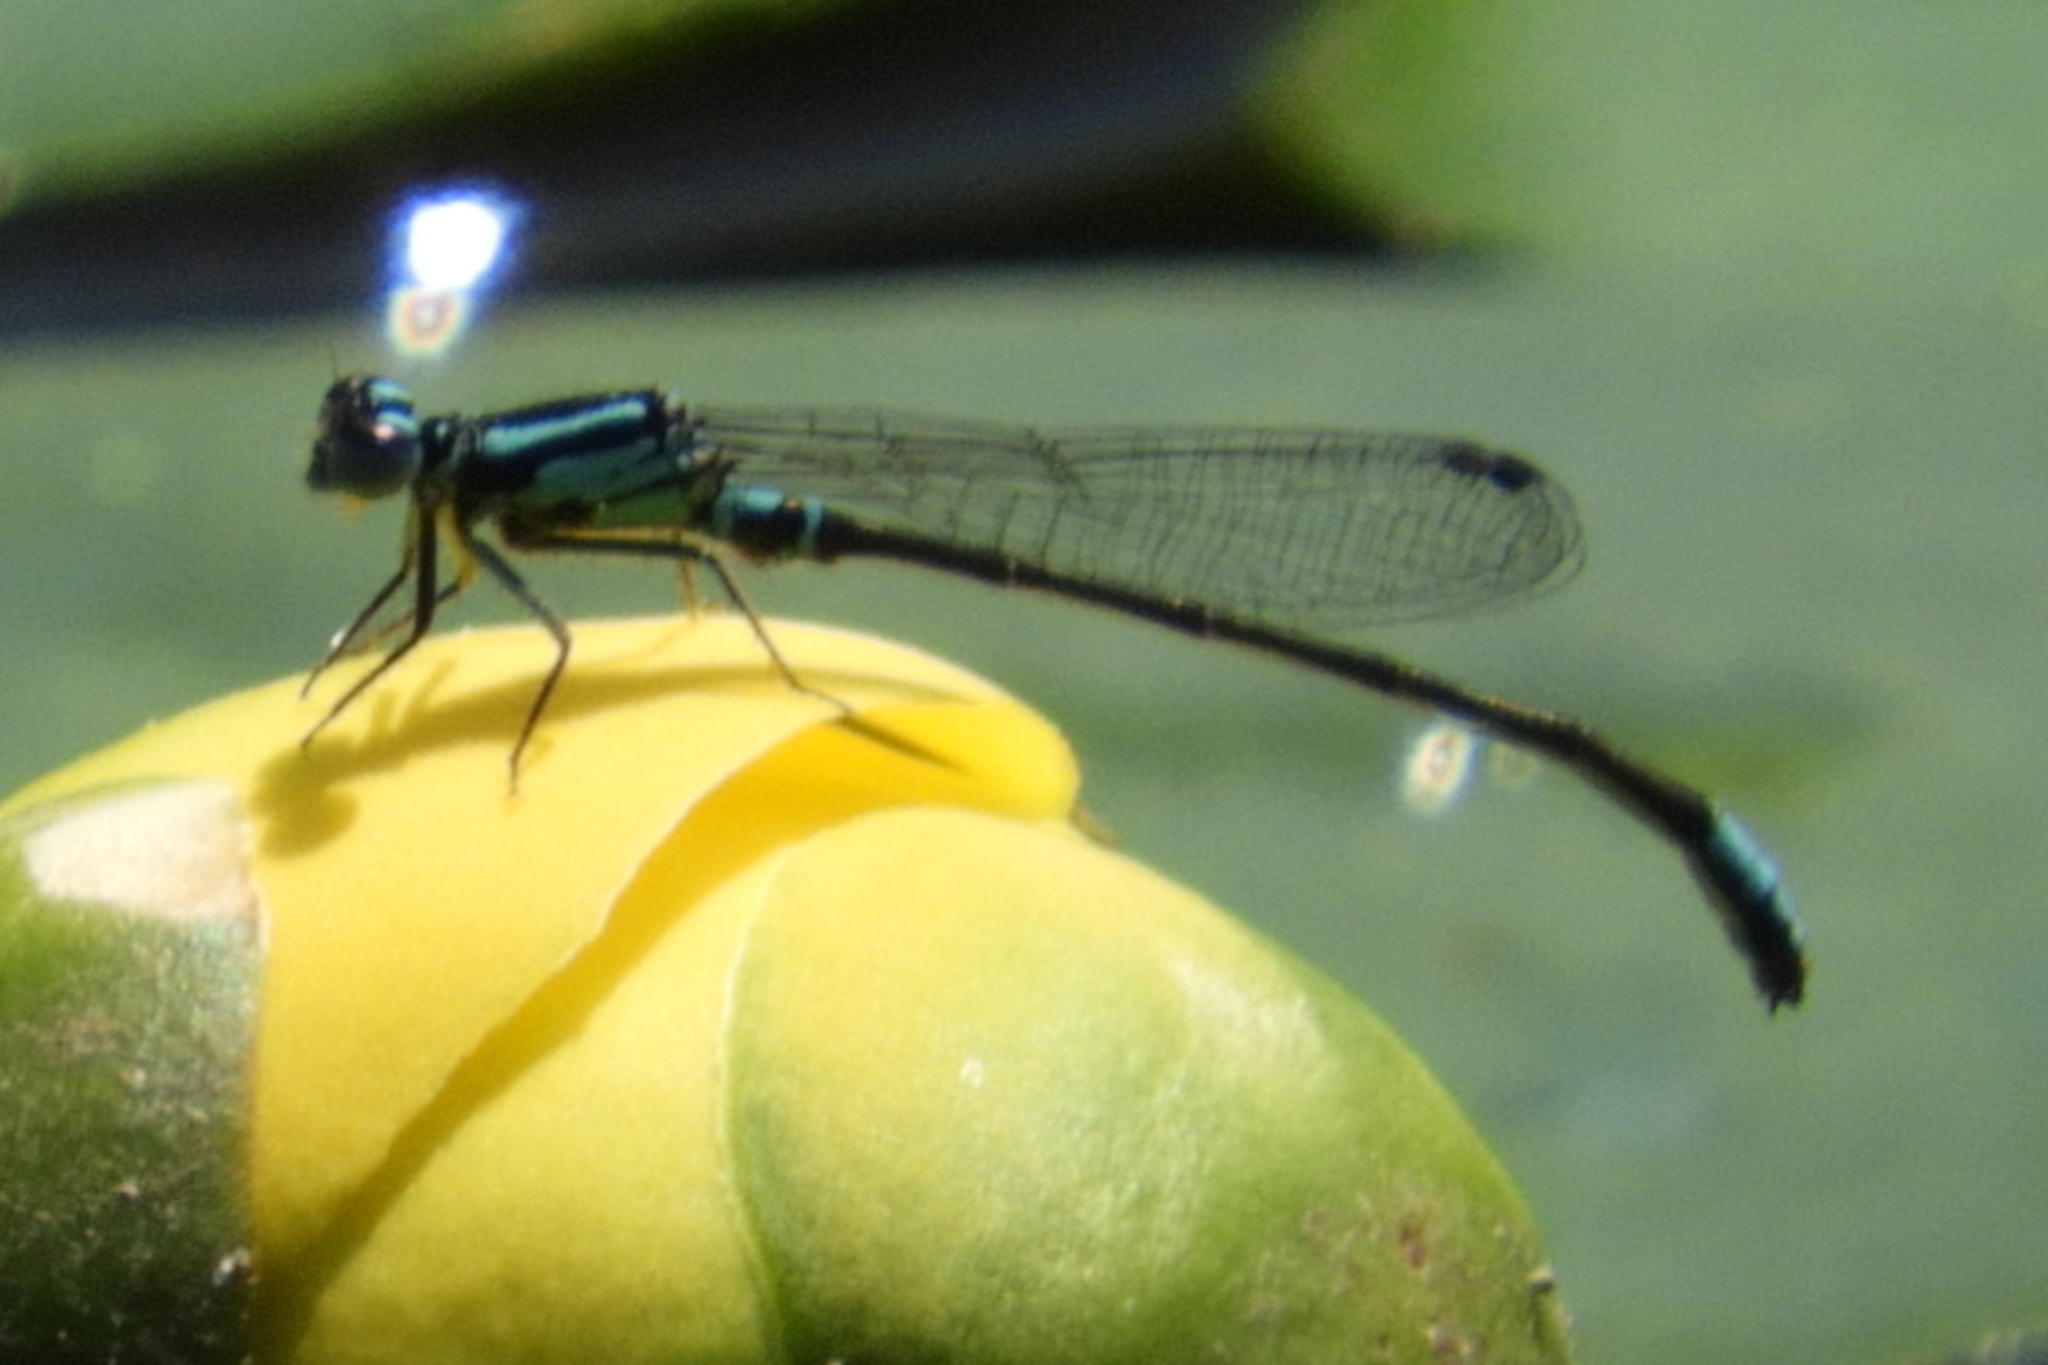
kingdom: Animalia
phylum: Arthropoda
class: Insecta
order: Odonata
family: Coenagrionidae
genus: Ischnura
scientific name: Ischnura kellicotti
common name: Lilypad forktail
